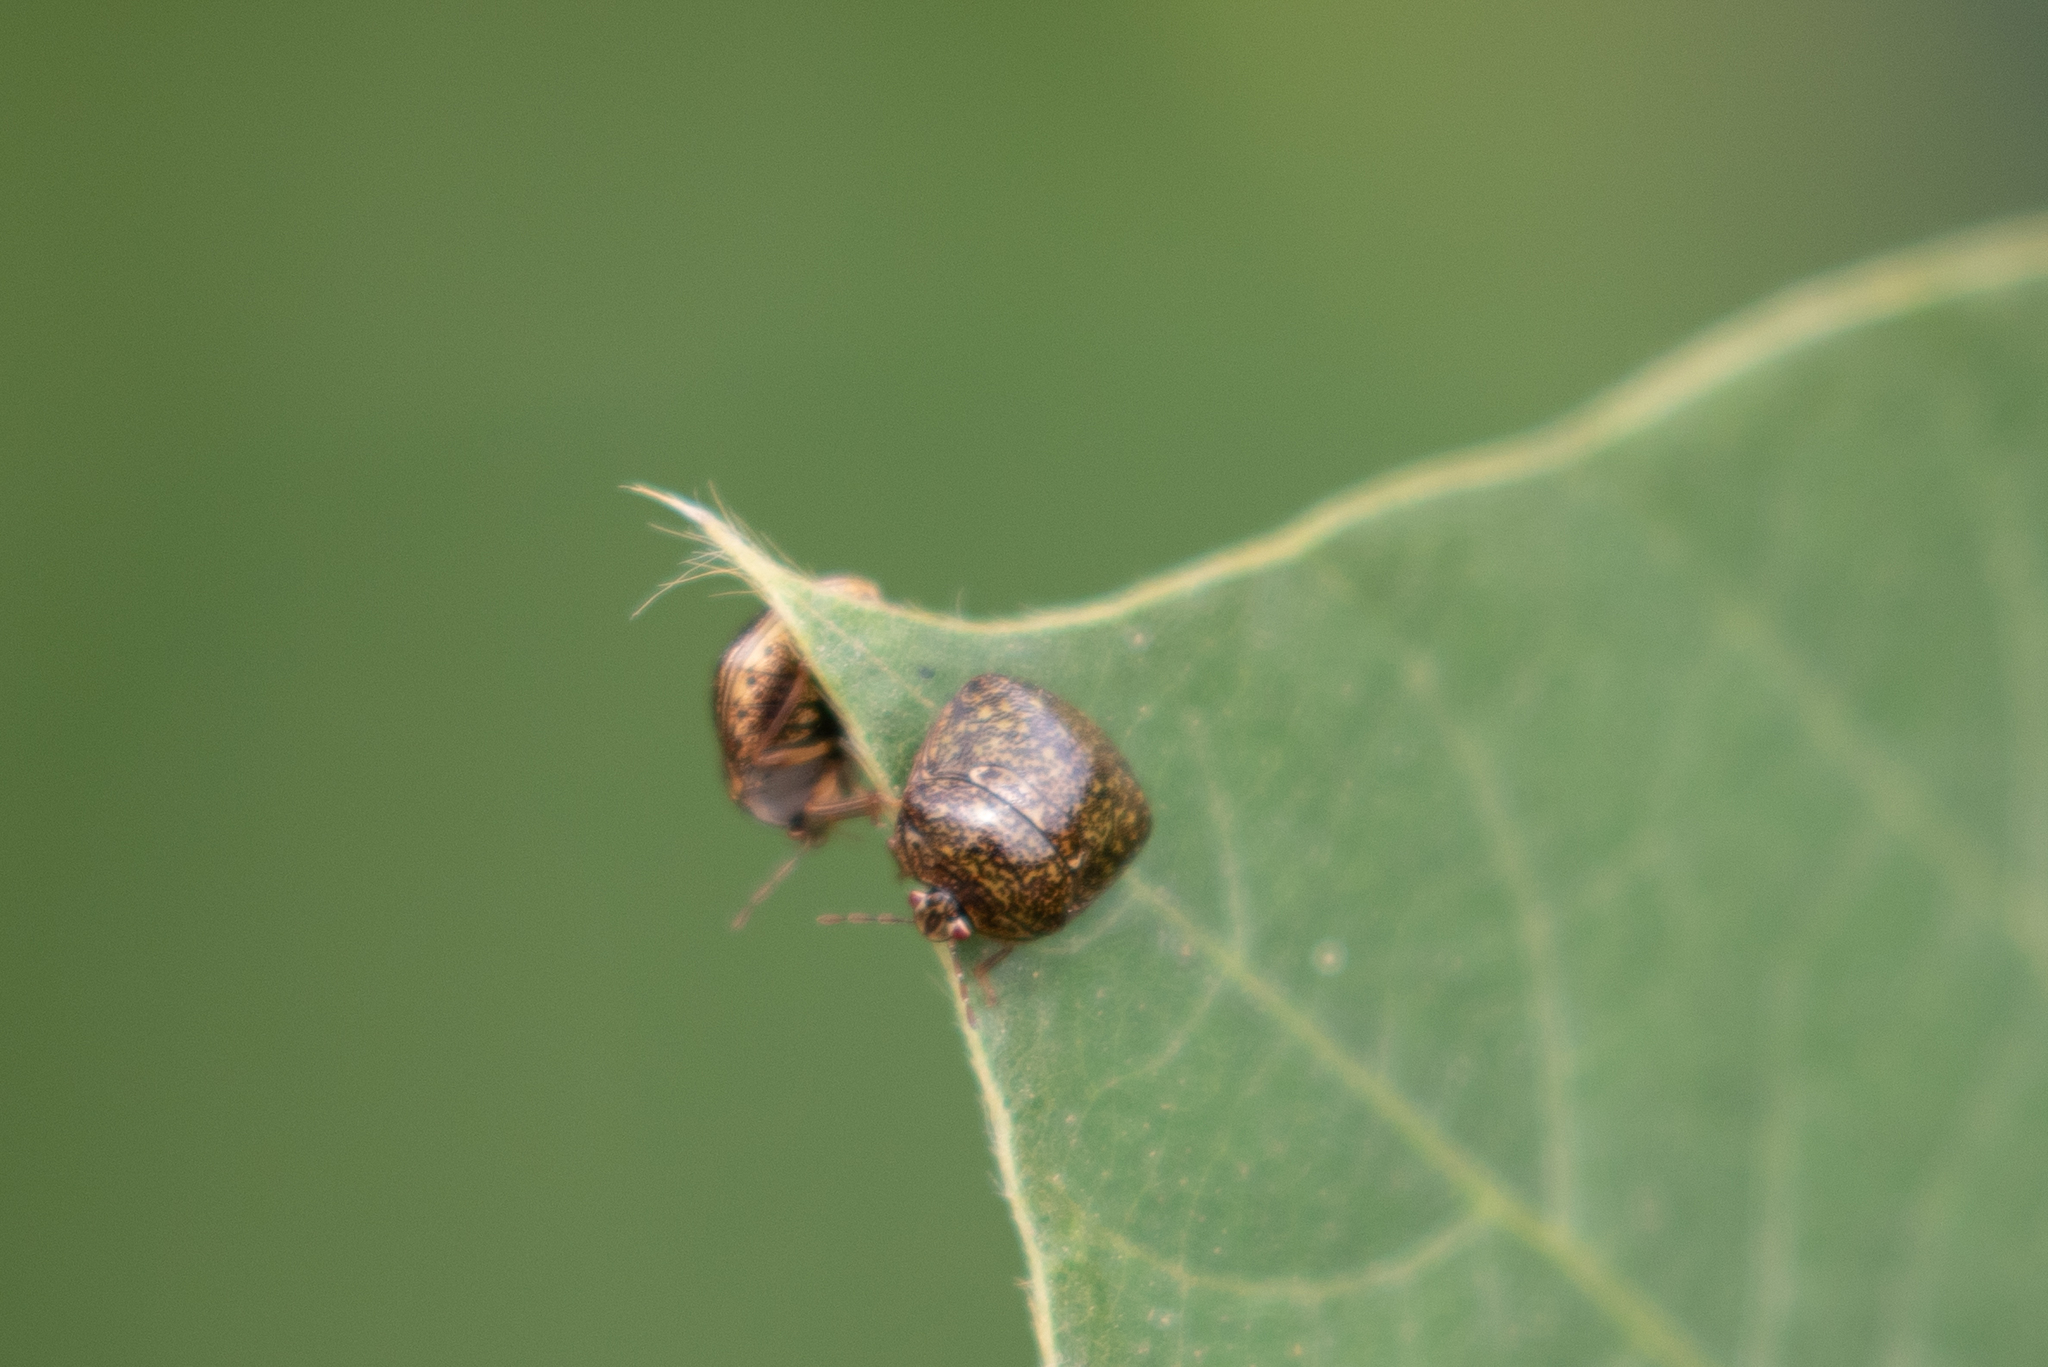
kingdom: Animalia
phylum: Arthropoda
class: Insecta
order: Hemiptera
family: Plataspidae
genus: Megacopta
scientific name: Megacopta cribraria
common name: Bean plataspid
